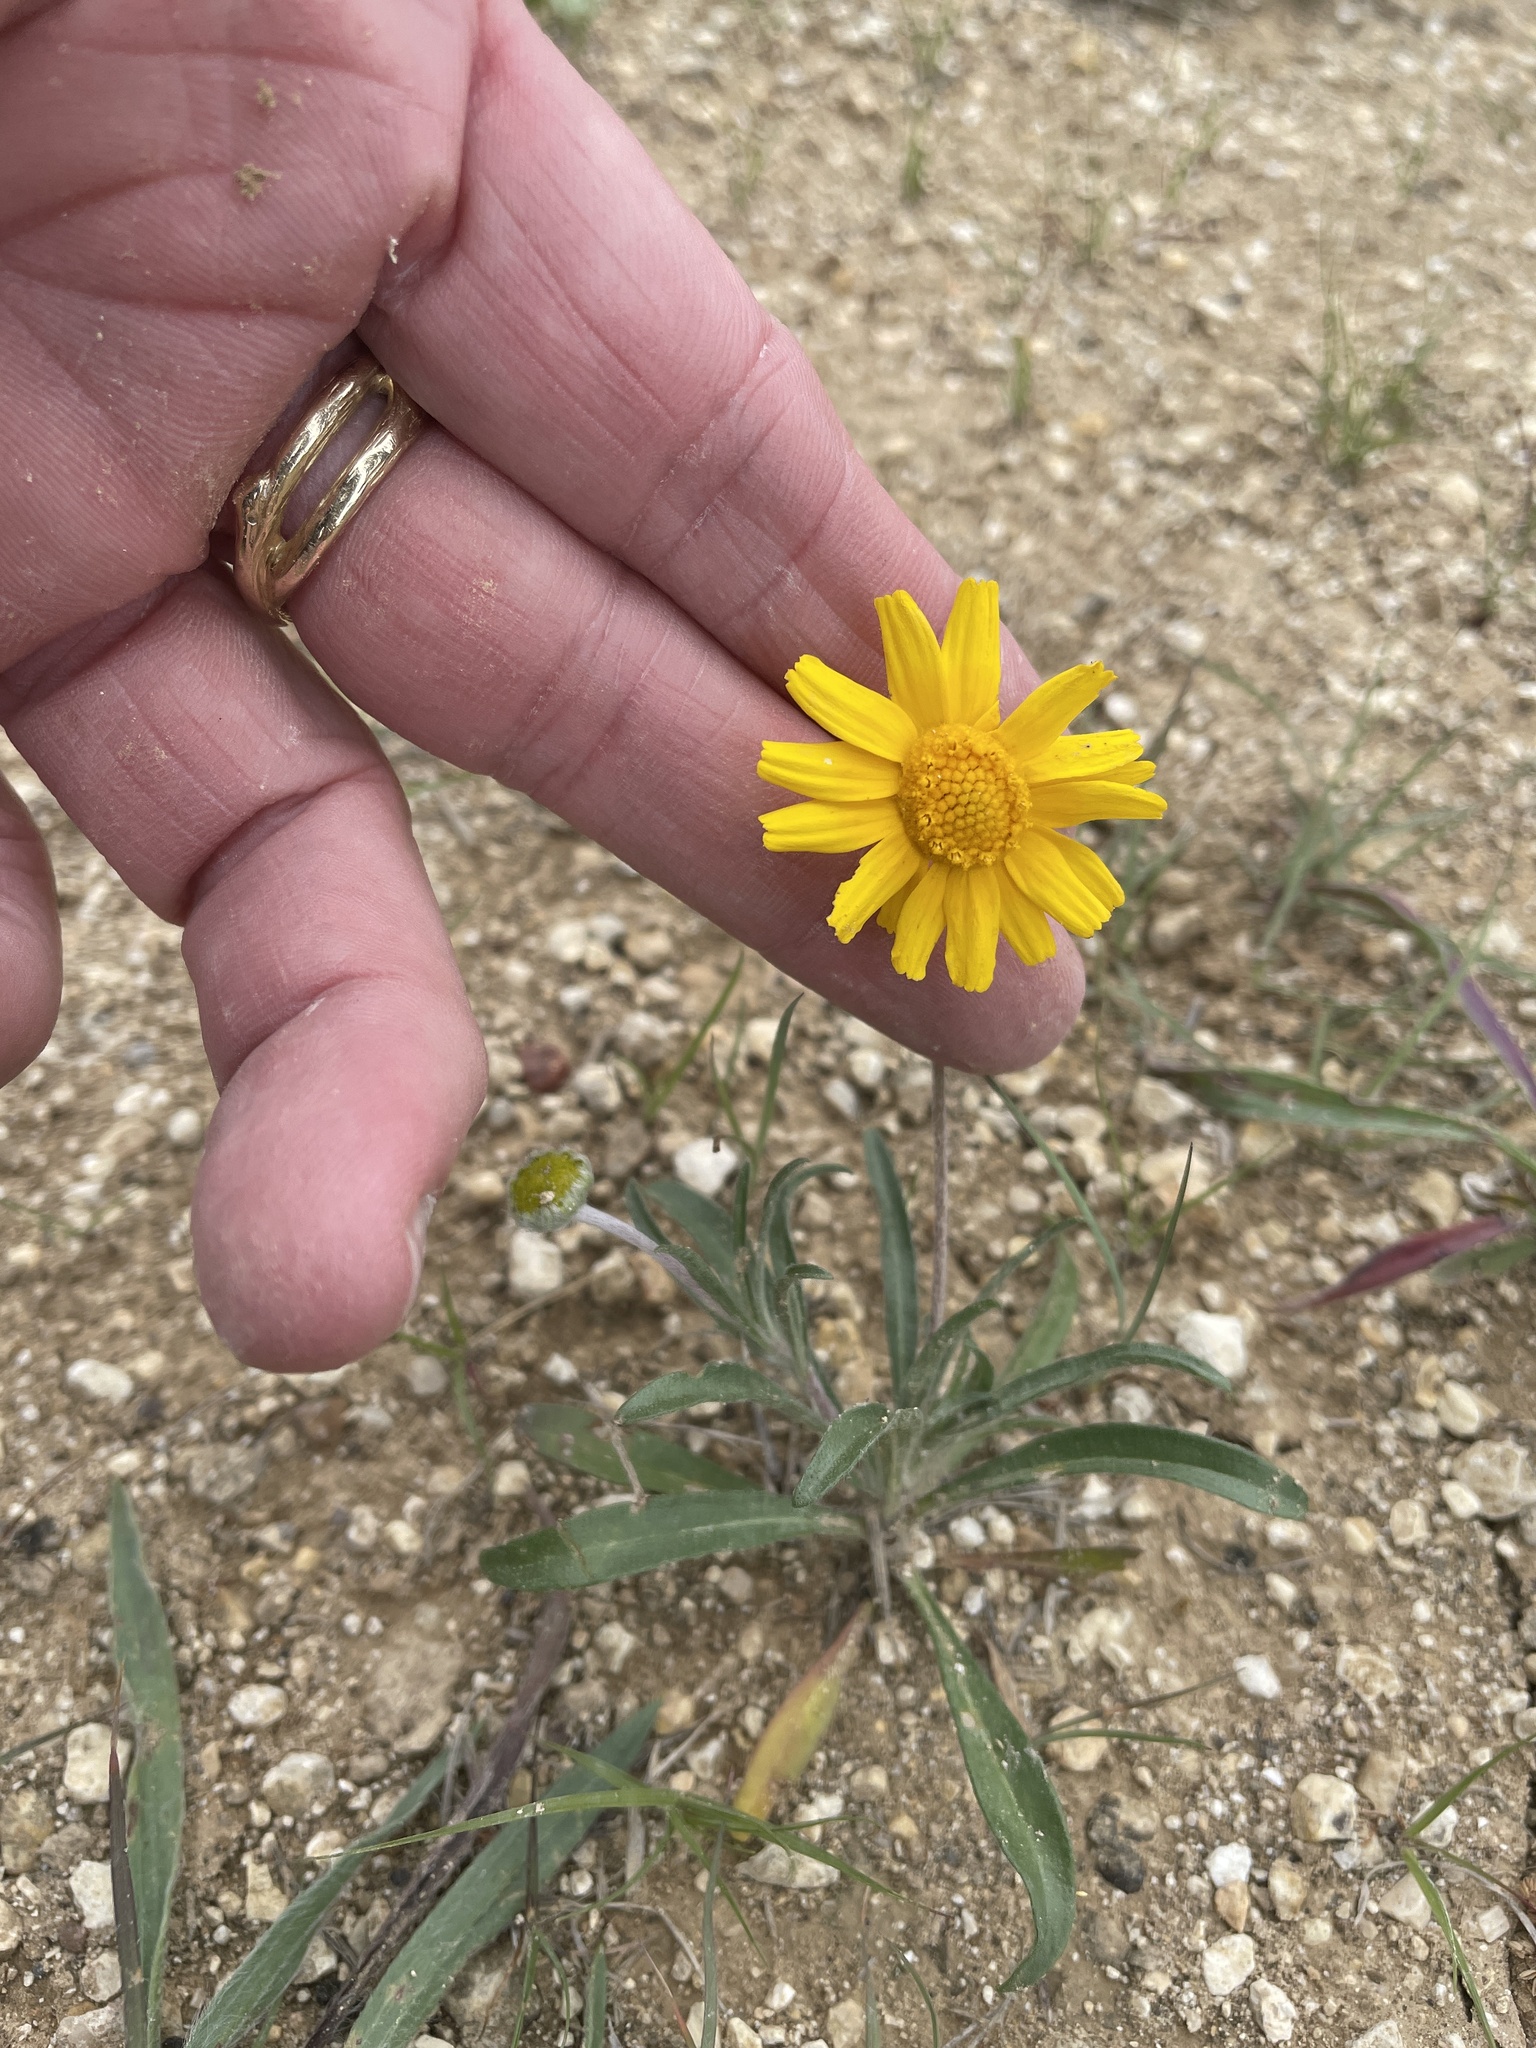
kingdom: Plantae
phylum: Tracheophyta
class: Magnoliopsida
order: Asterales
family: Asteraceae
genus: Tetraneuris
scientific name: Tetraneuris linearifolia
